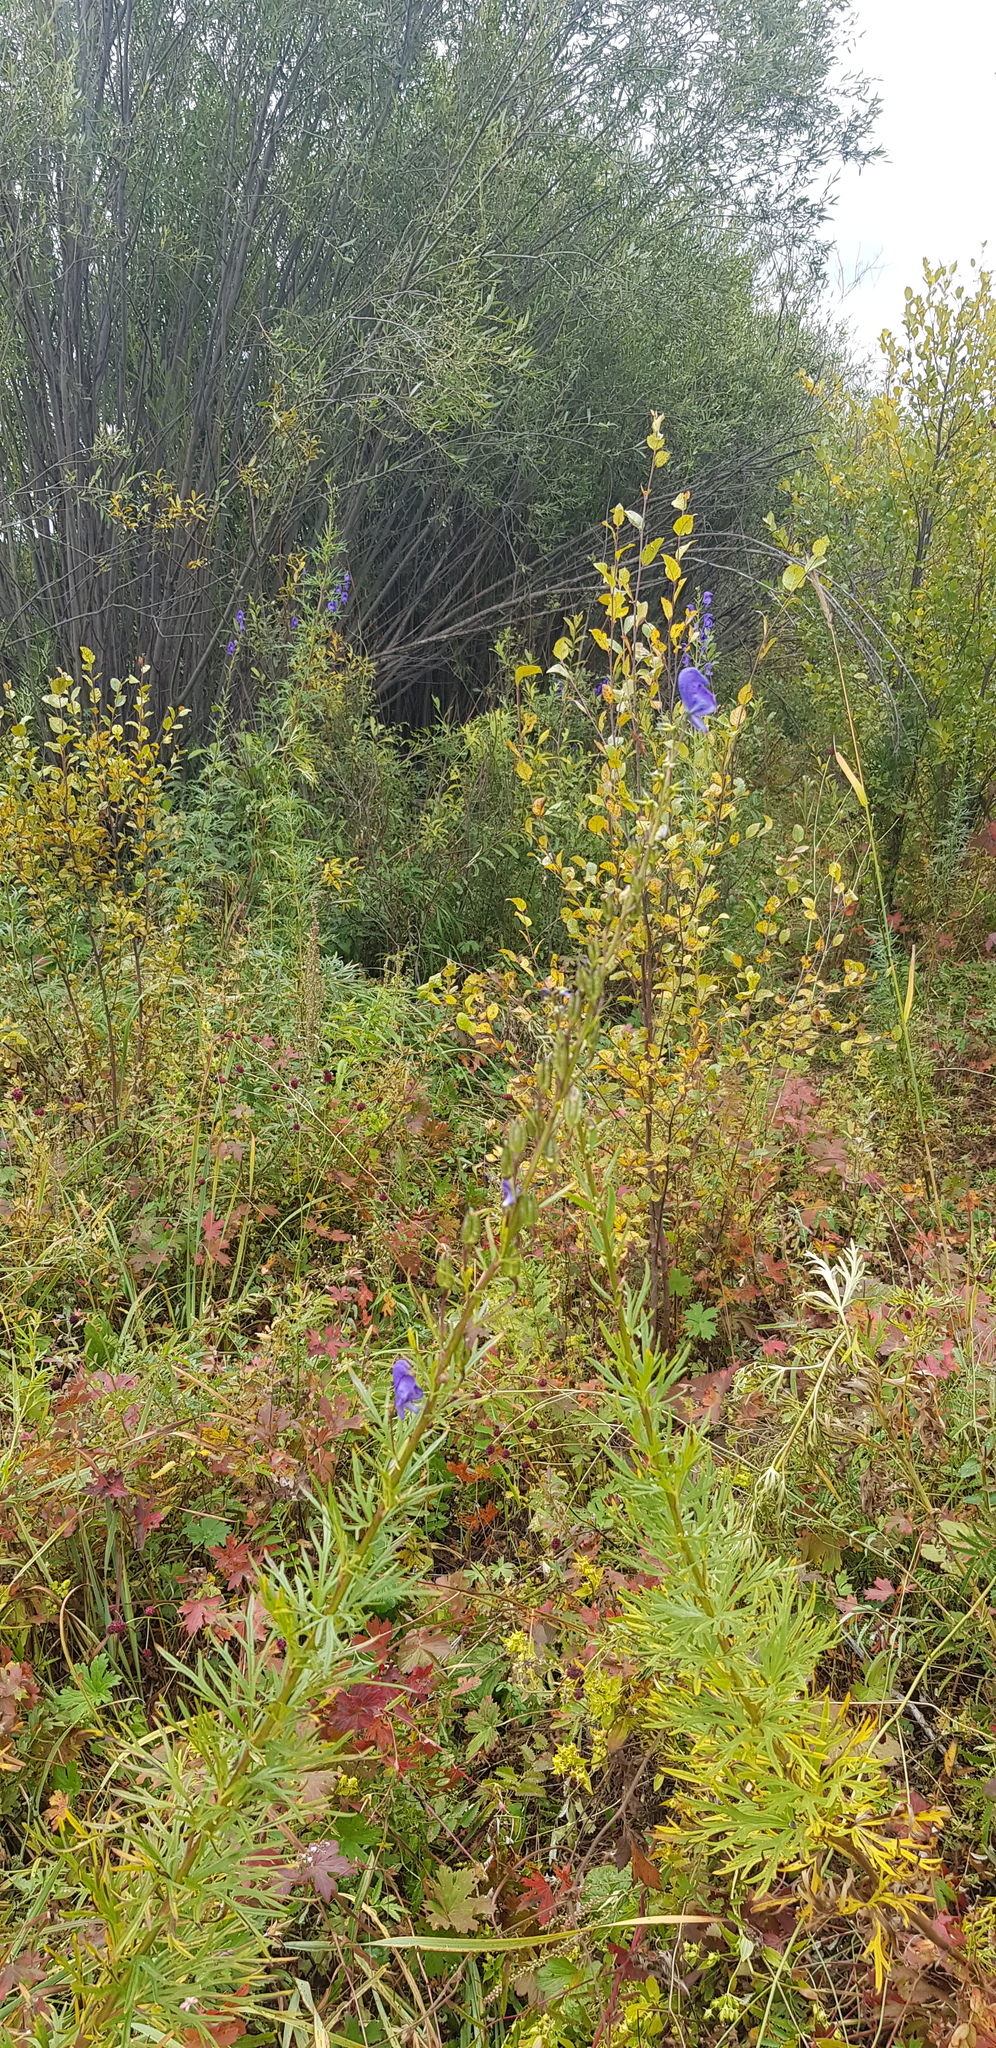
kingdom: Plantae
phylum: Tracheophyta
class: Magnoliopsida
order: Ranunculales
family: Ranunculaceae
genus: Aconitum
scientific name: Aconitum turczaninowii
